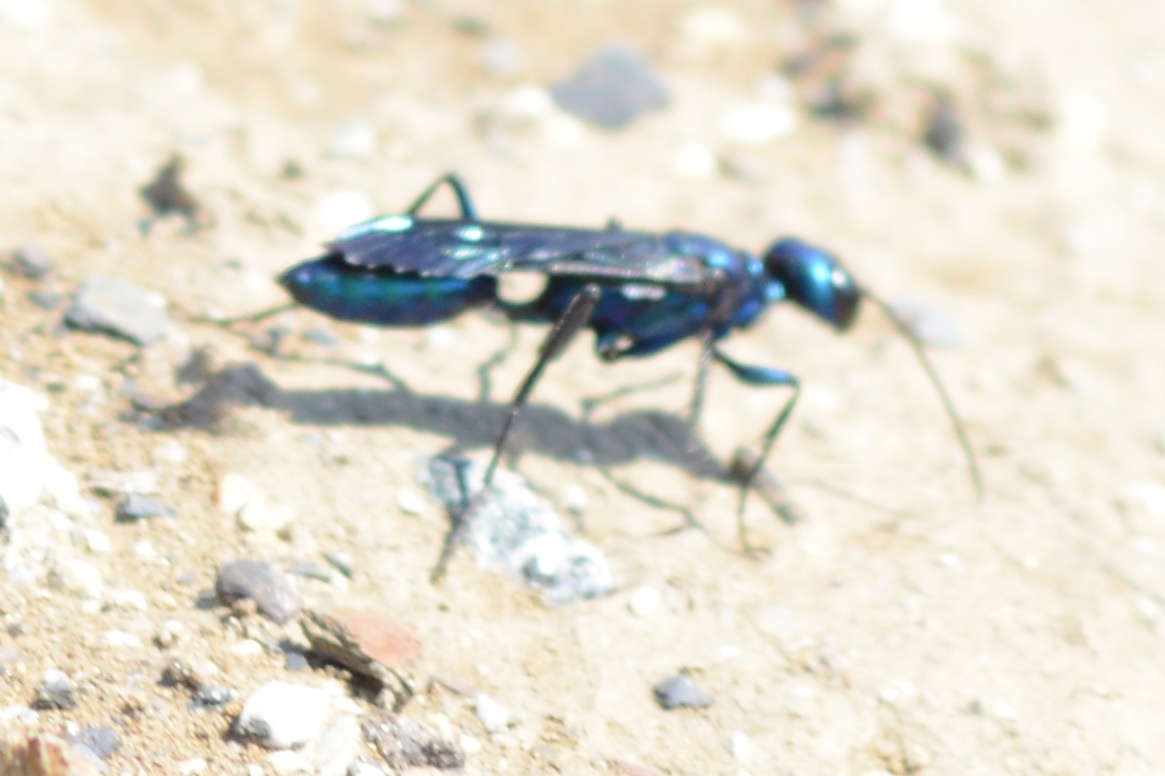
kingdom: Animalia
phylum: Arthropoda
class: Insecta
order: Hymenoptera
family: Sphecidae
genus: Chlorion
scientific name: Chlorion aerarium
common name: Steel-blue cricket hunter
